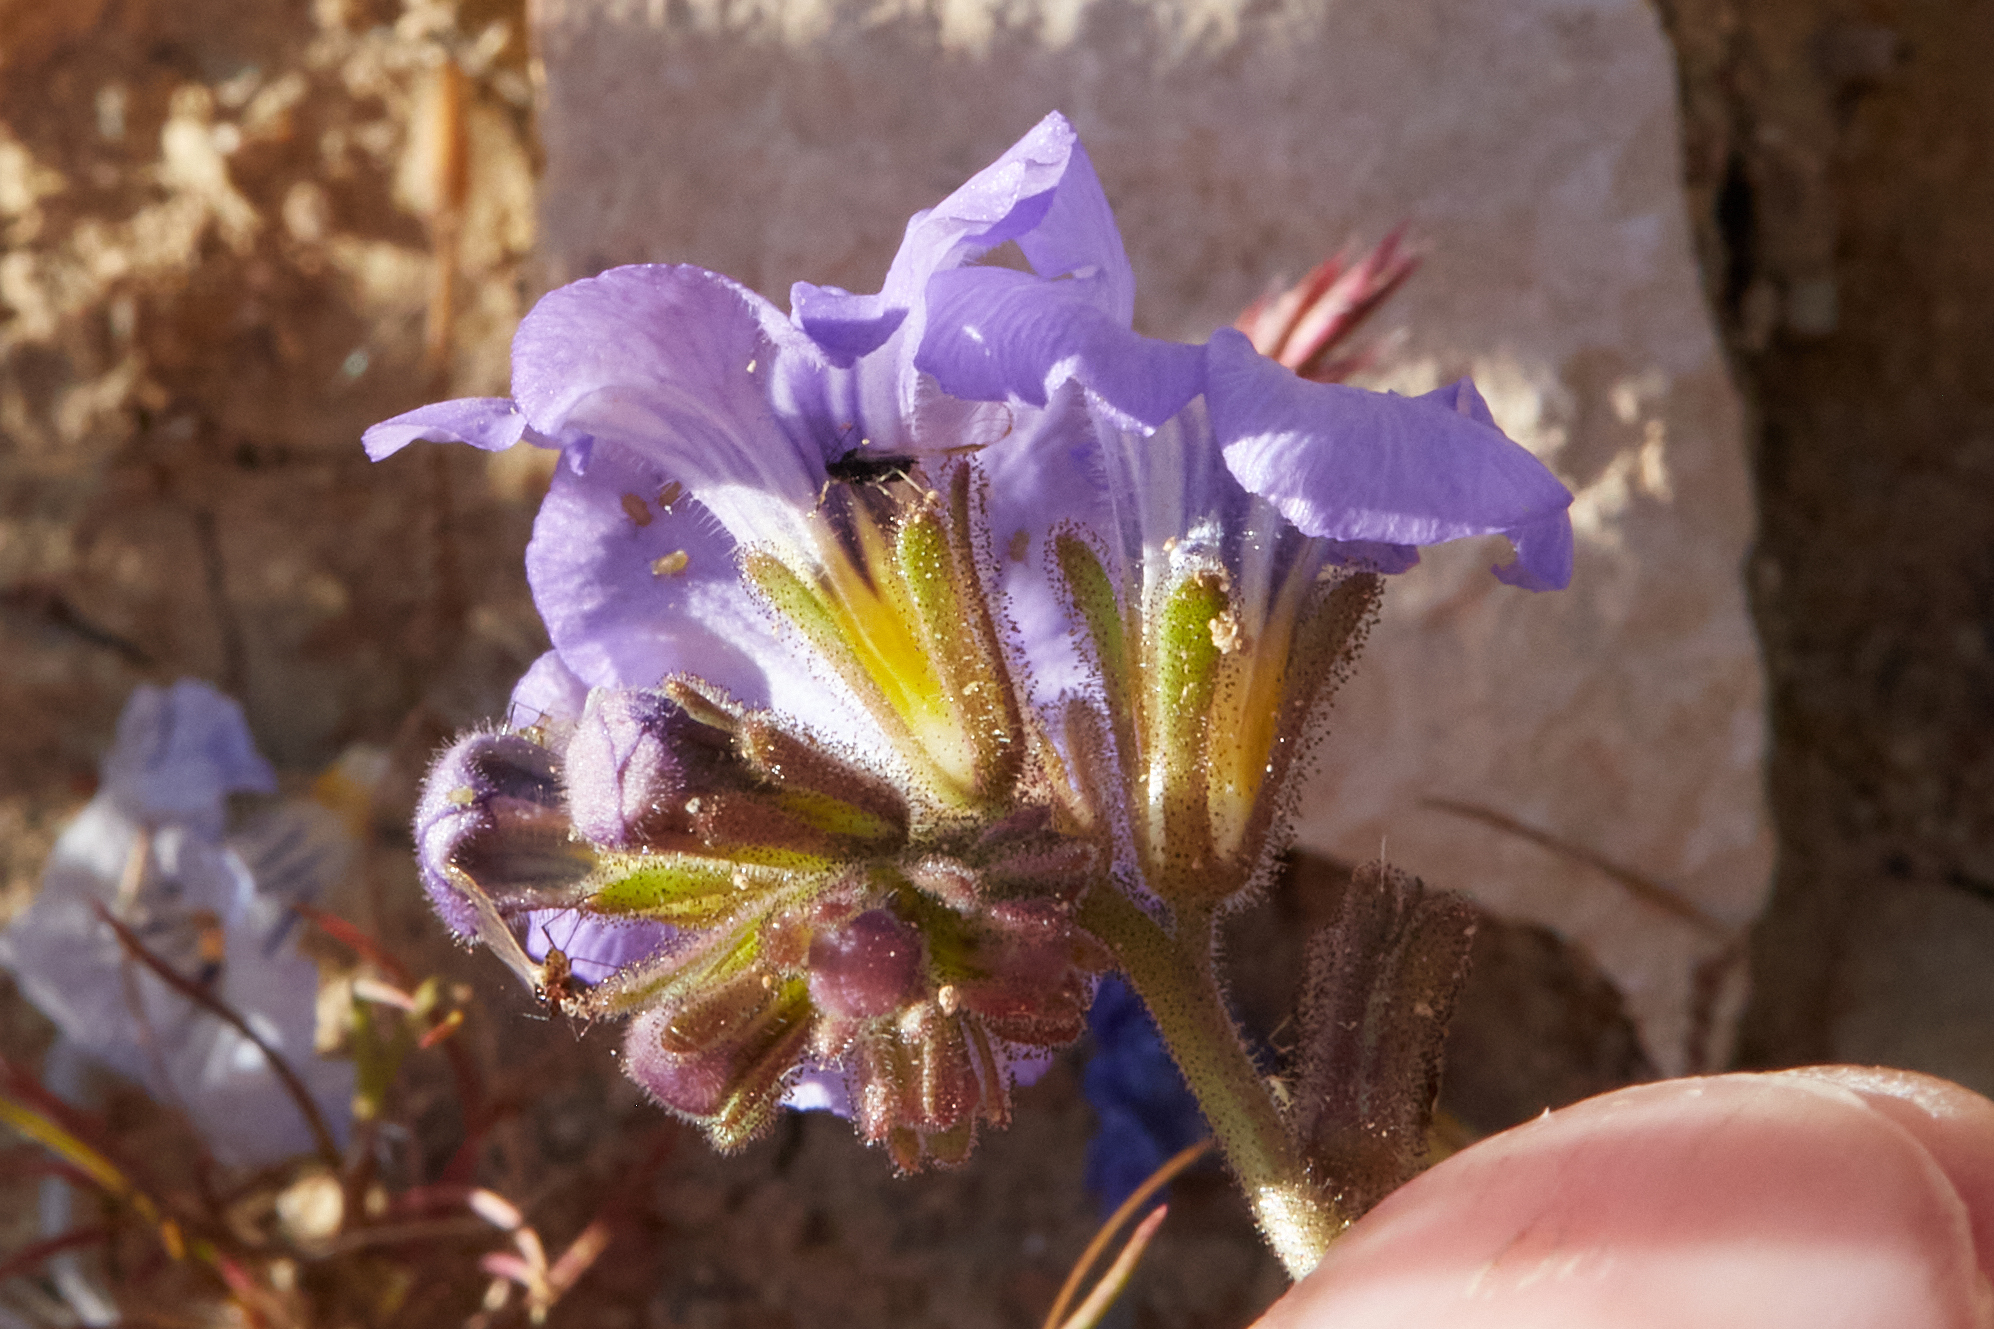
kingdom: Plantae
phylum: Tracheophyta
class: Magnoliopsida
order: Boraginales
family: Hydrophyllaceae
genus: Phacelia
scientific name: Phacelia fremontii
